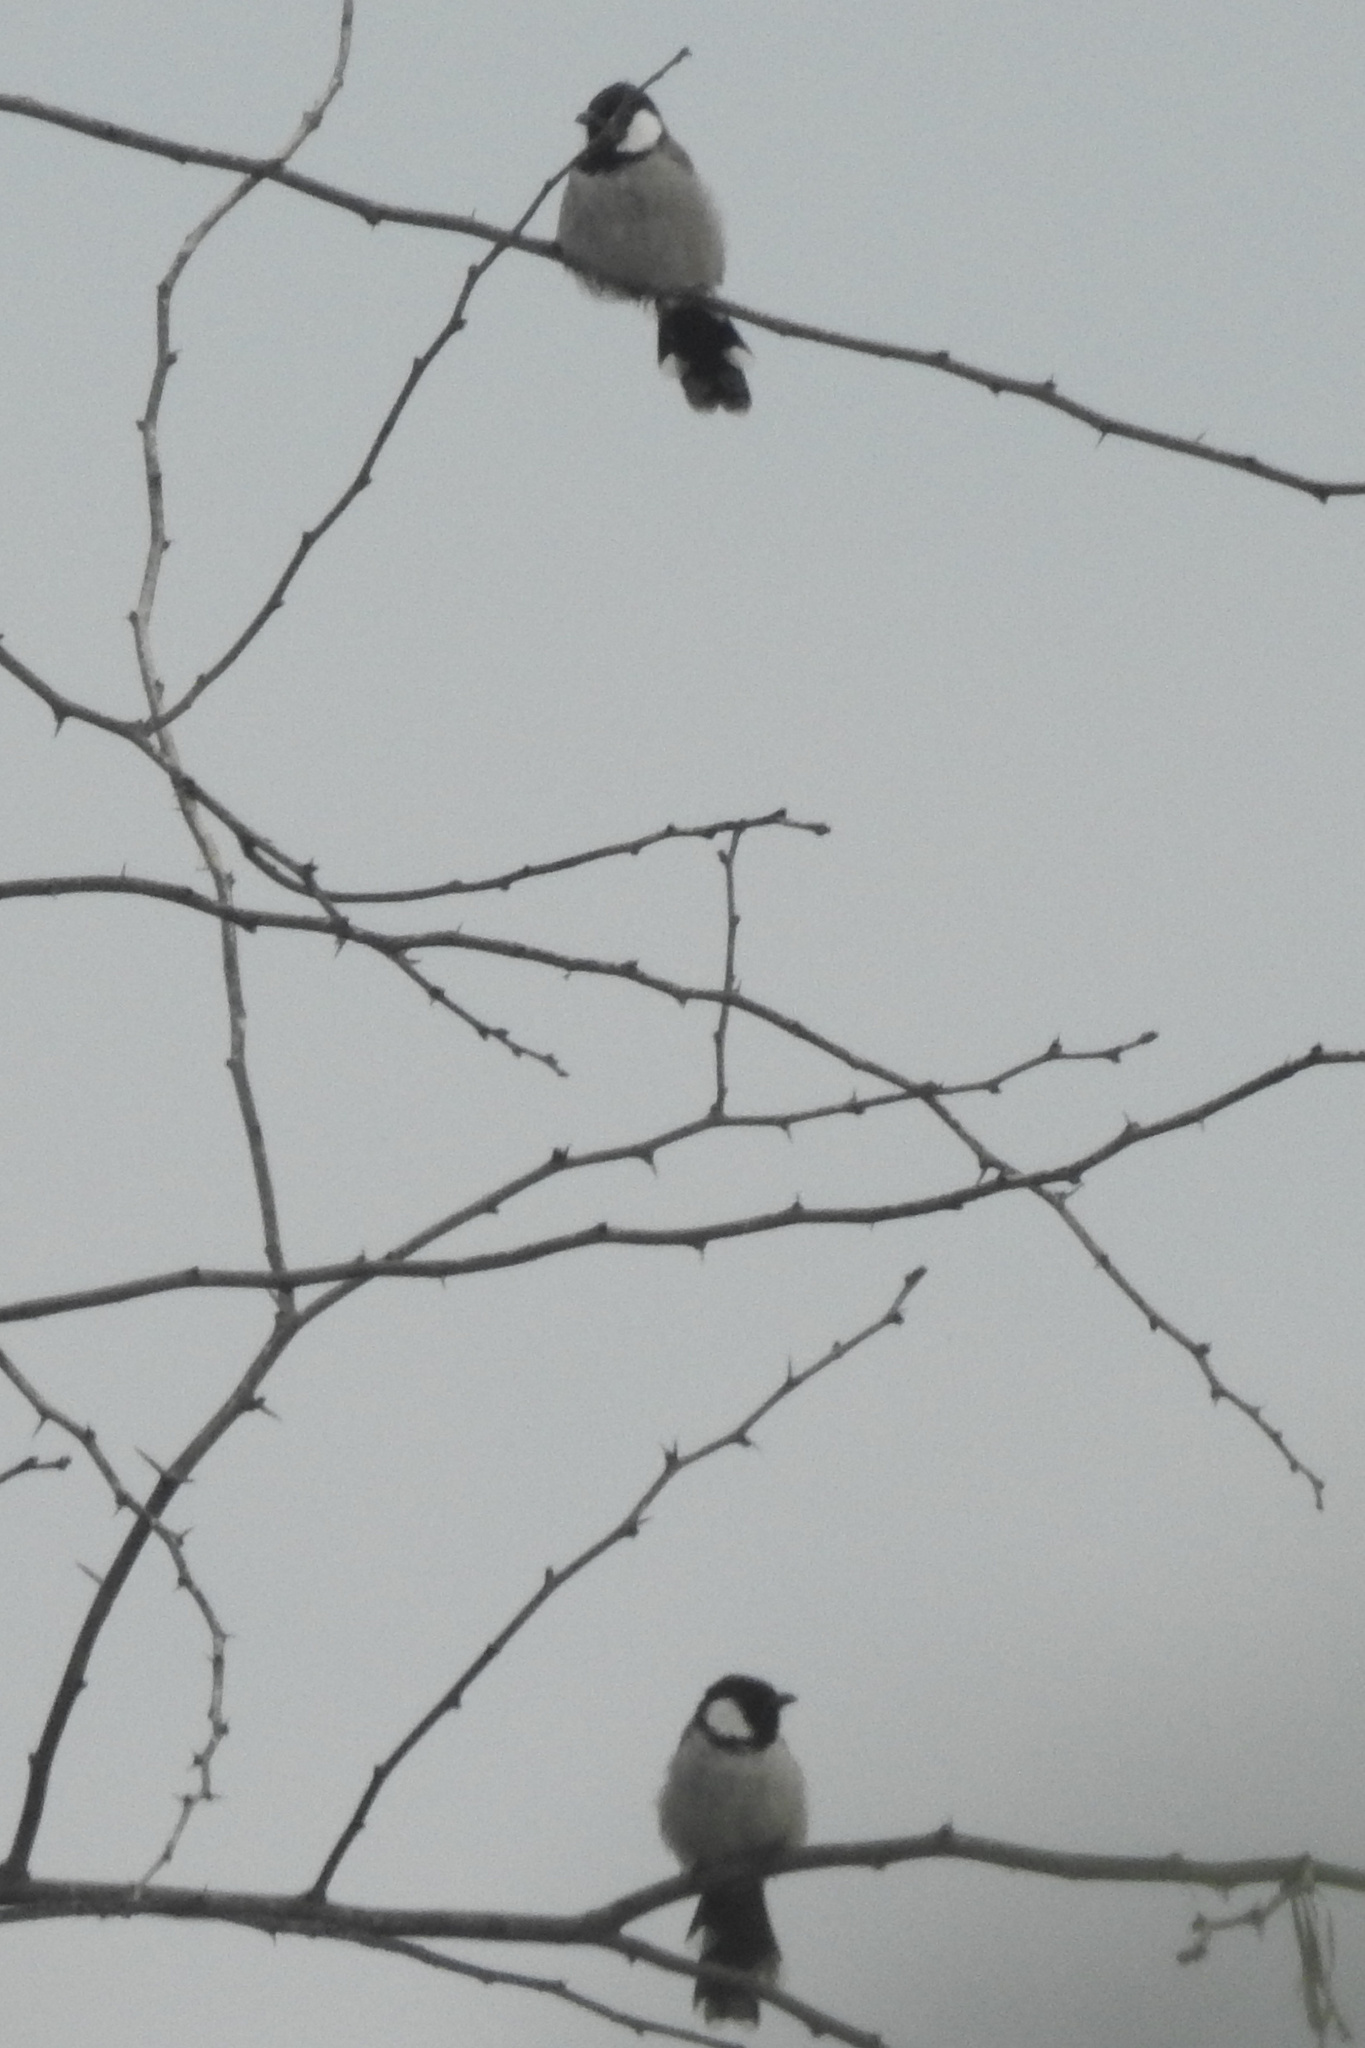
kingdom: Animalia
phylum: Chordata
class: Aves
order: Passeriformes
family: Pycnonotidae
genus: Pycnonotus
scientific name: Pycnonotus leucotis
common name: White-eared bulbul
